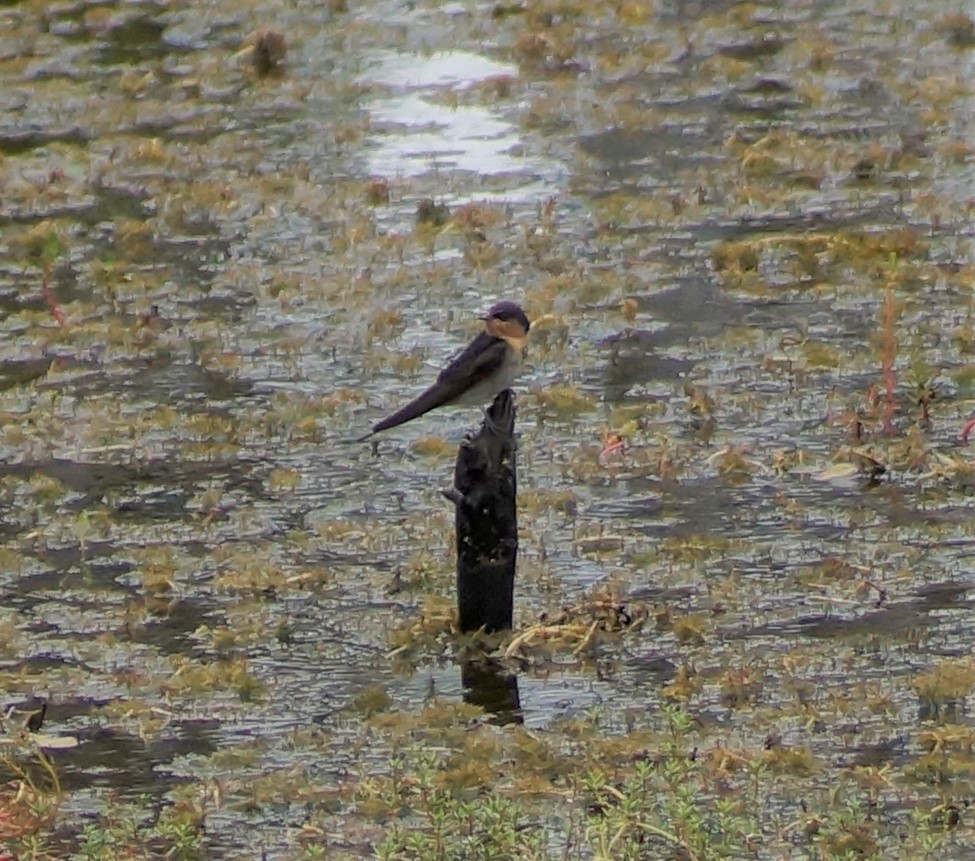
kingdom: Animalia
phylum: Chordata
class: Aves
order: Passeriformes
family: Hirundinidae
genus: Hirundo
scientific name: Hirundo neoxena
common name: Welcome swallow
